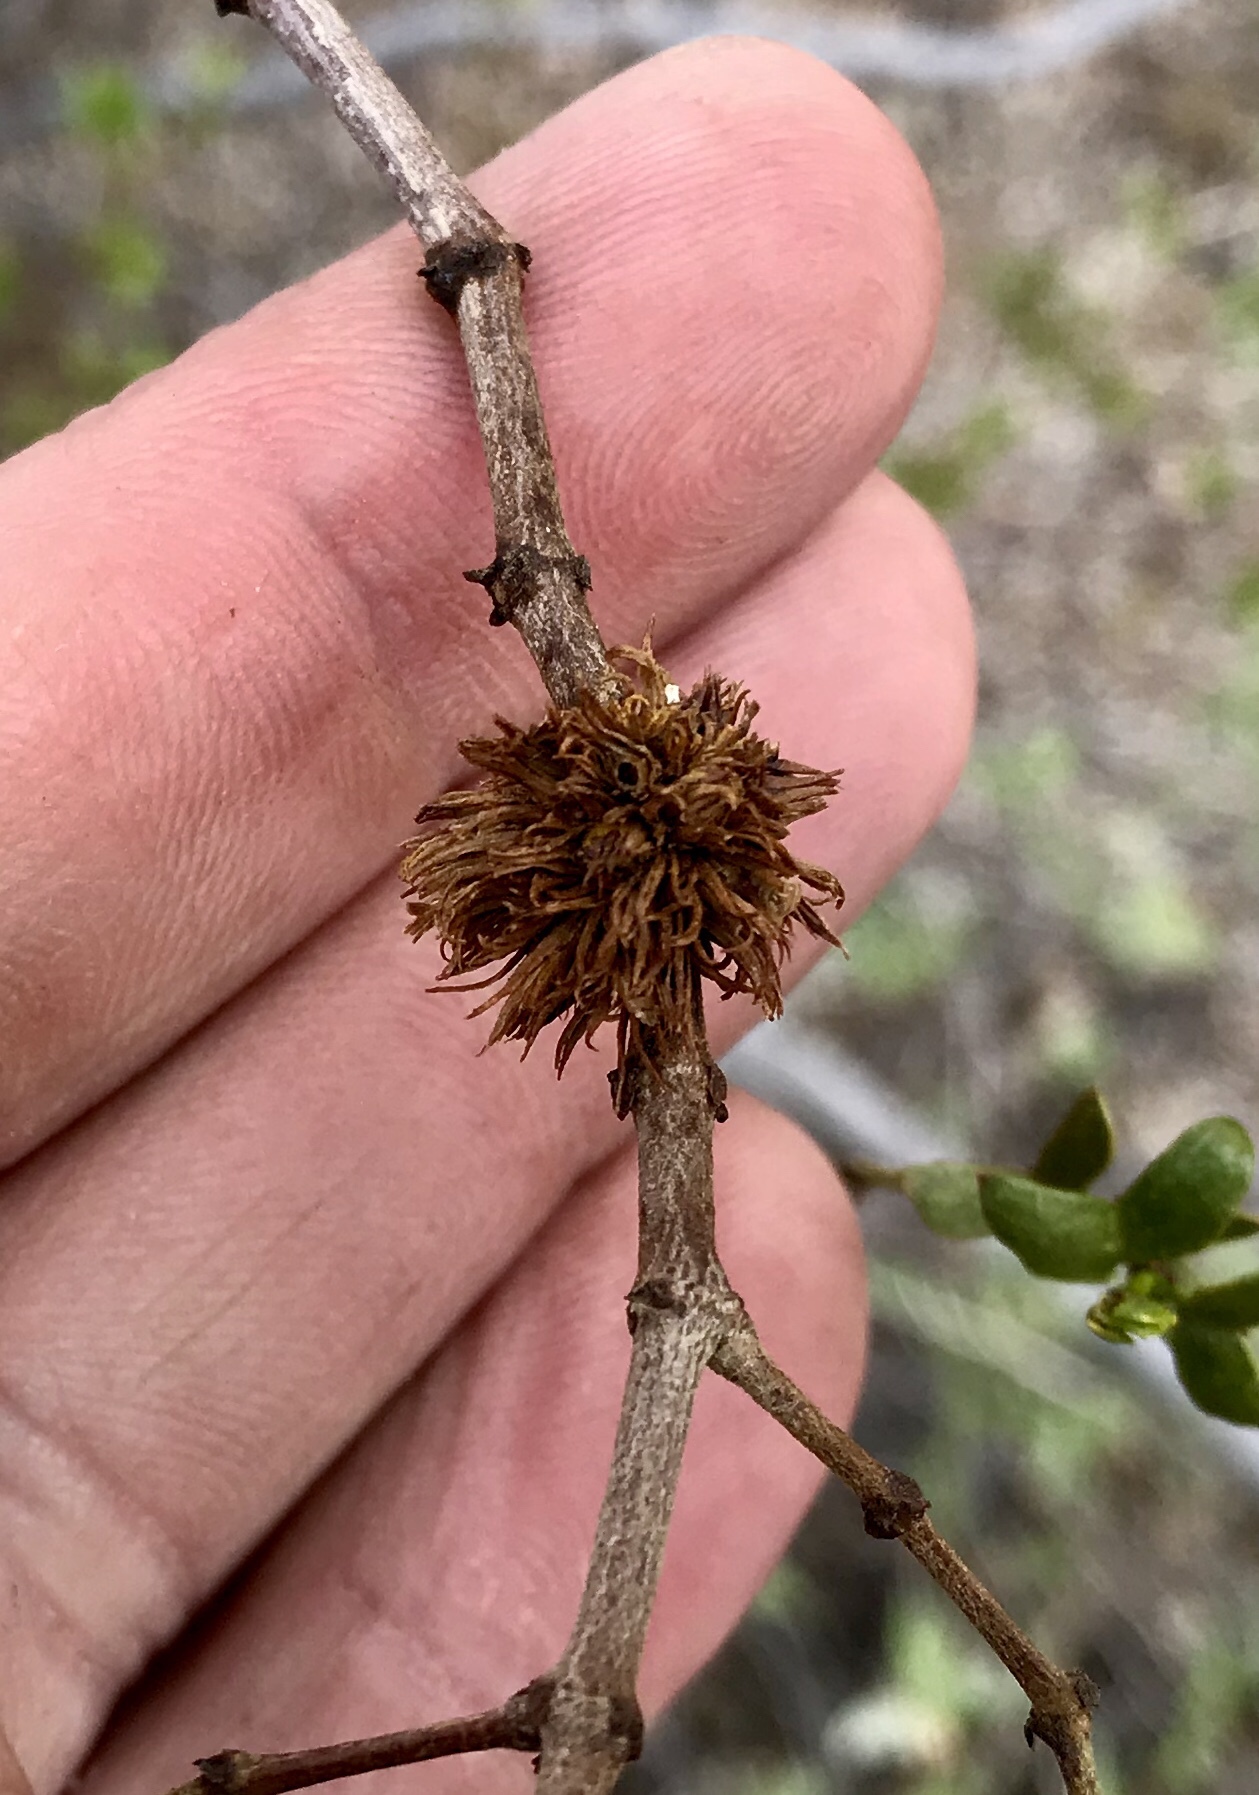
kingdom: Animalia
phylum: Arthropoda
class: Insecta
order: Diptera
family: Cecidomyiidae
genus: Asphondylia
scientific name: Asphondylia auripila
